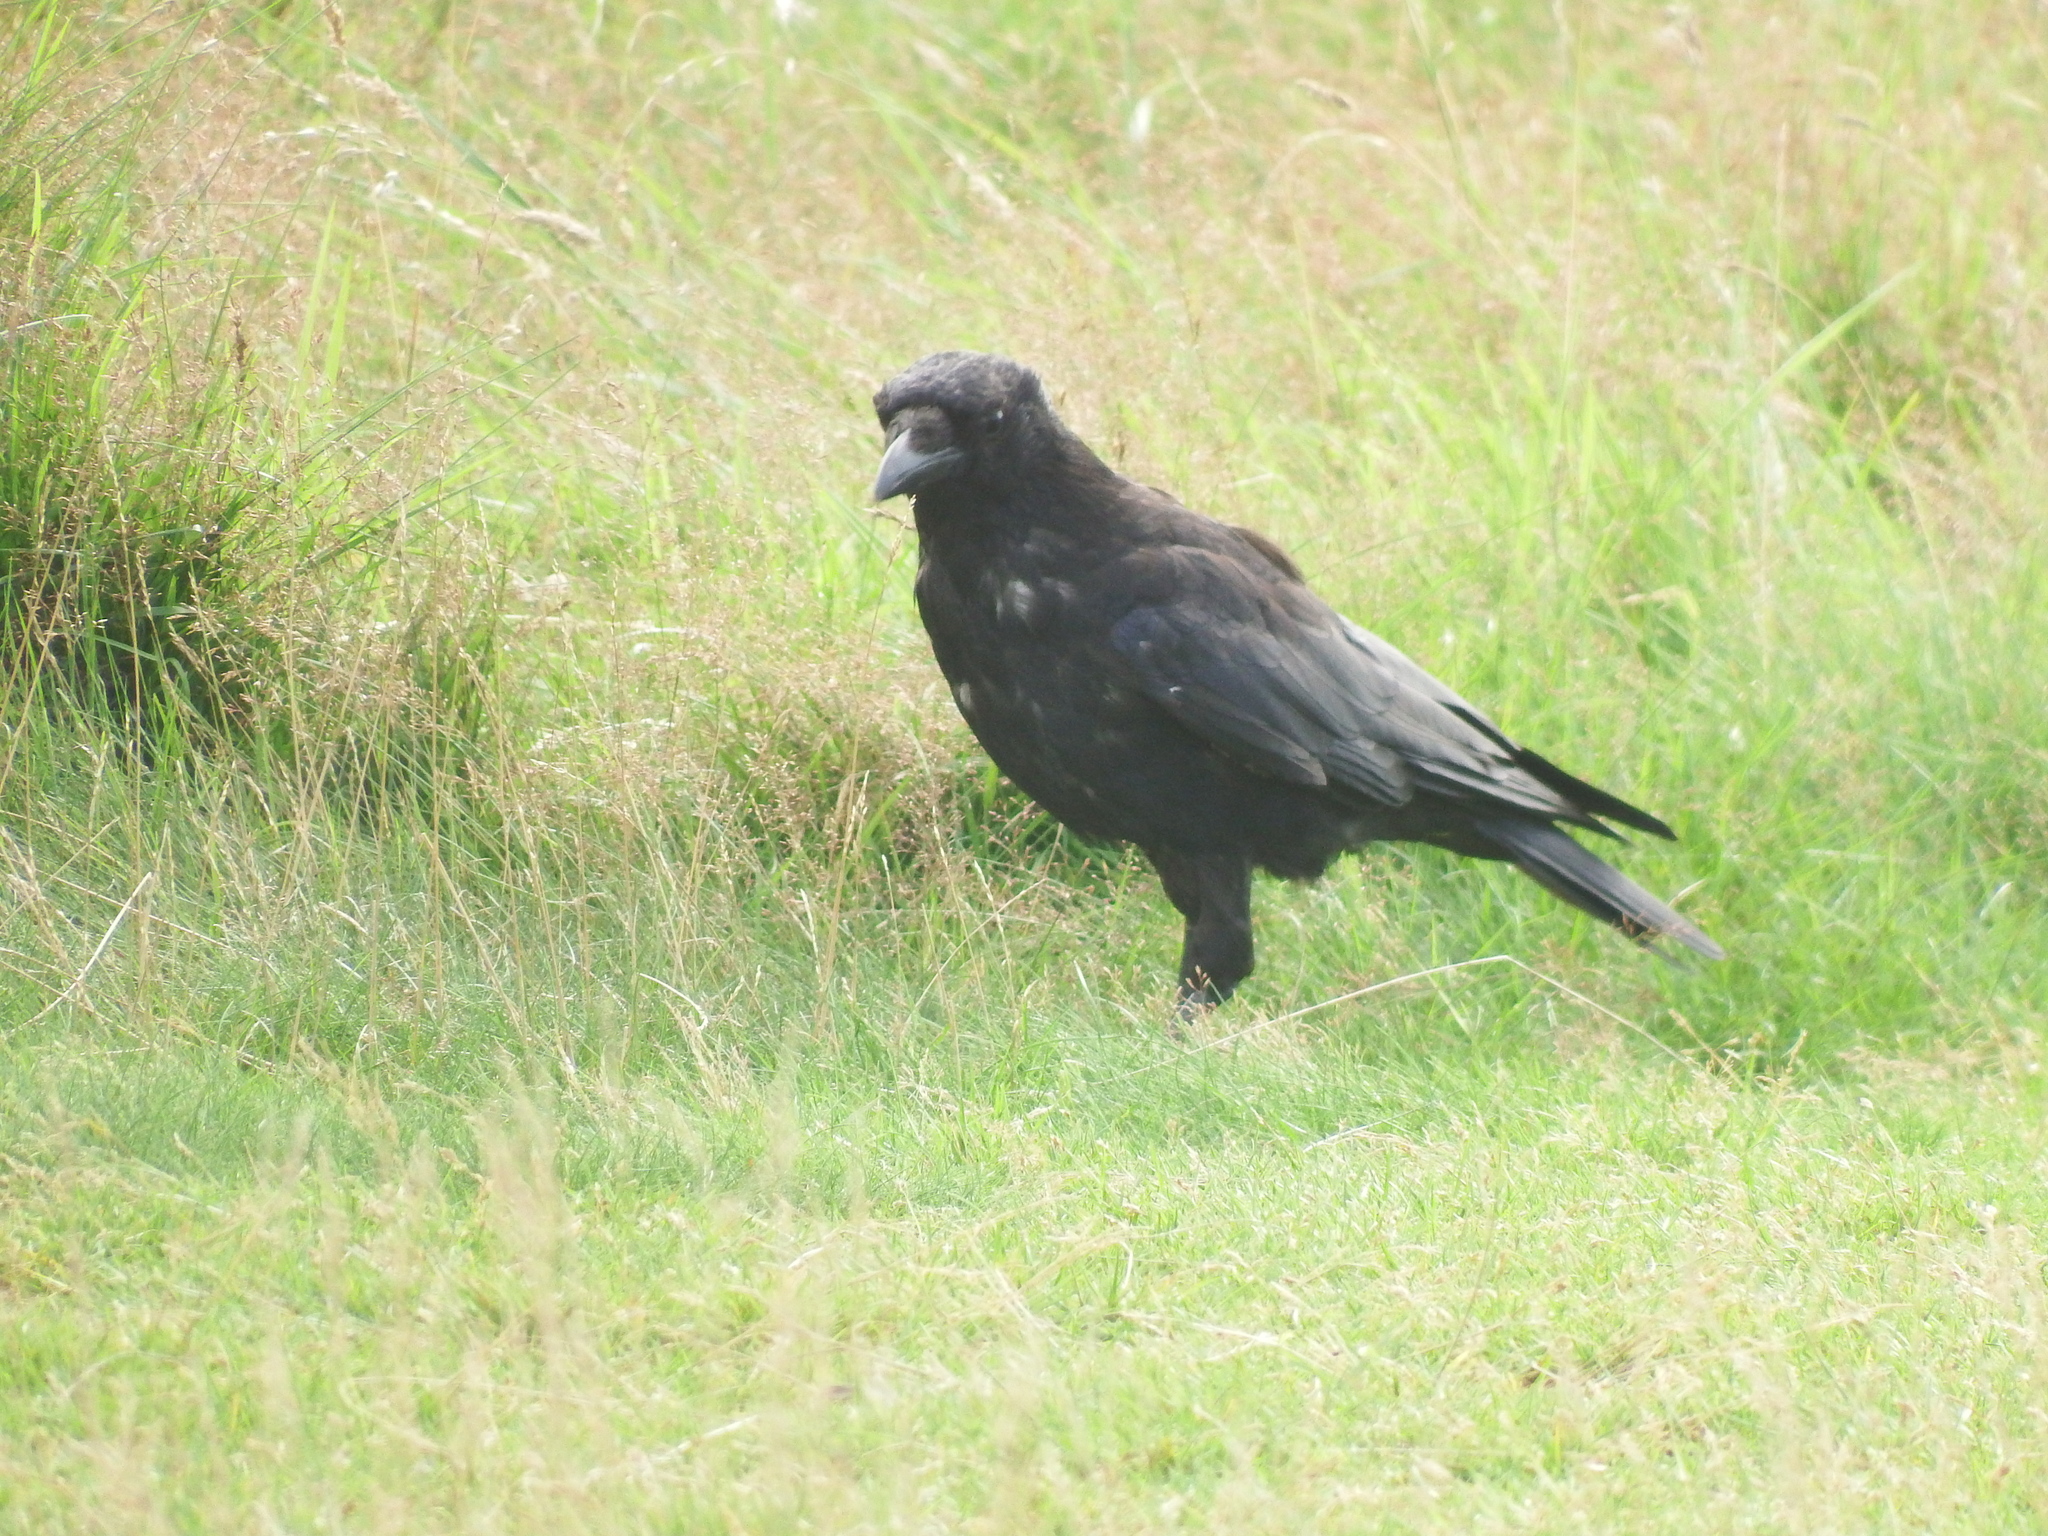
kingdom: Animalia
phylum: Chordata
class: Aves
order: Passeriformes
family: Corvidae
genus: Corvus
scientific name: Corvus corone
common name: Carrion crow
